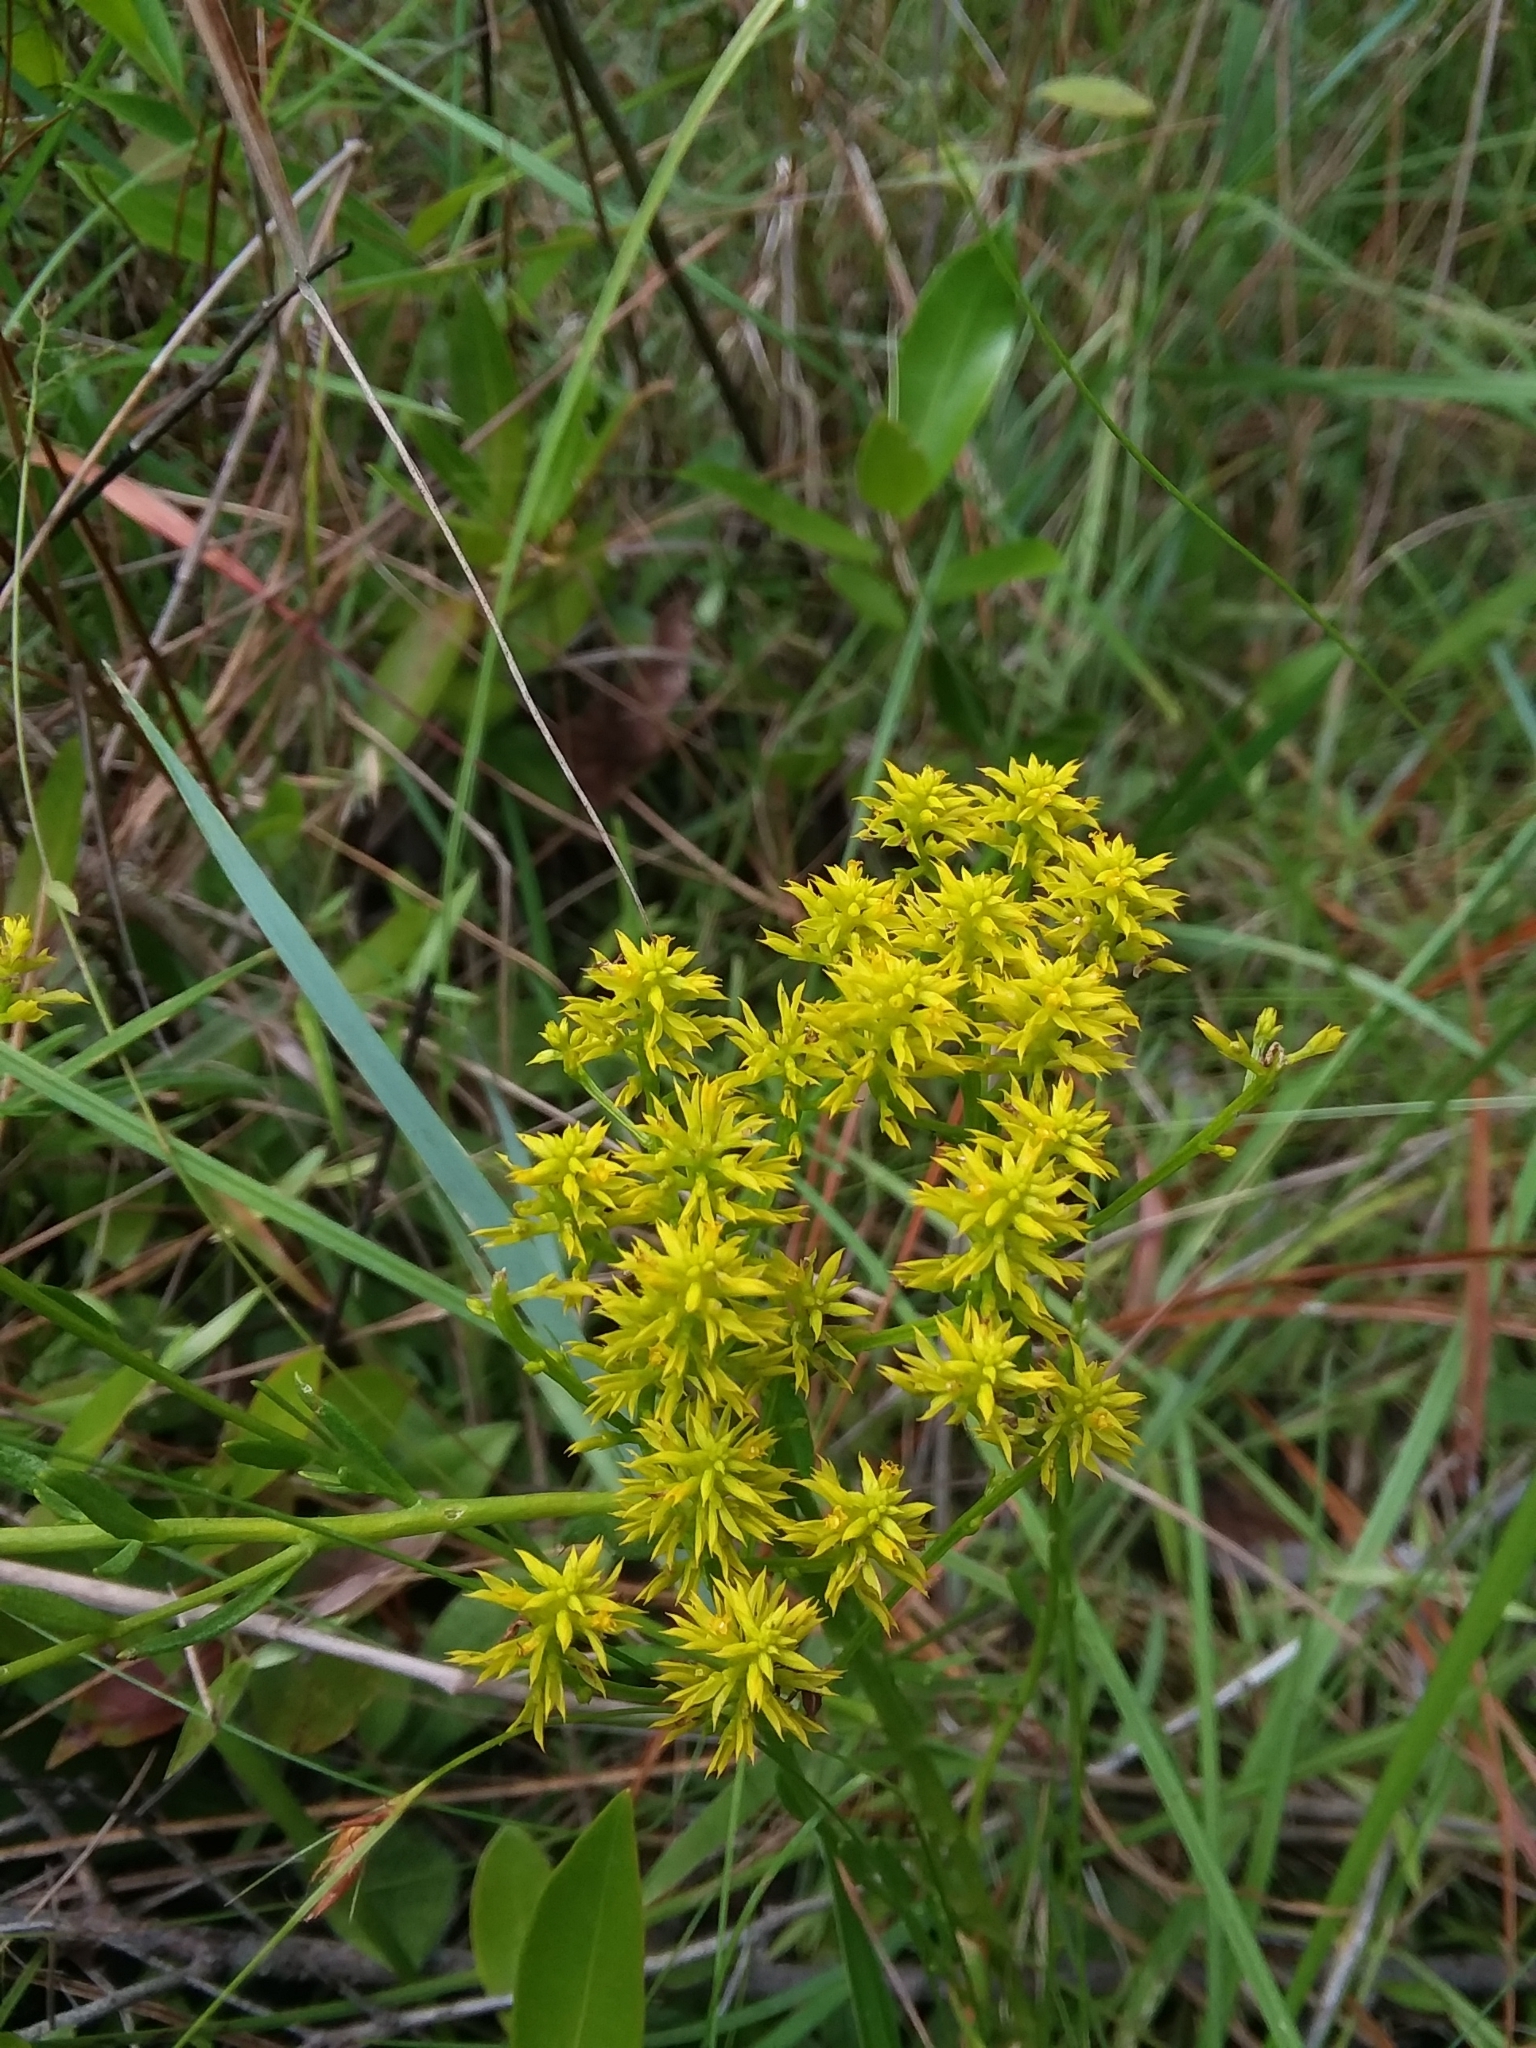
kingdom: Plantae
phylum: Tracheophyta
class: Magnoliopsida
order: Fabales
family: Polygalaceae
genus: Polygala
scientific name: Polygala ramosa
